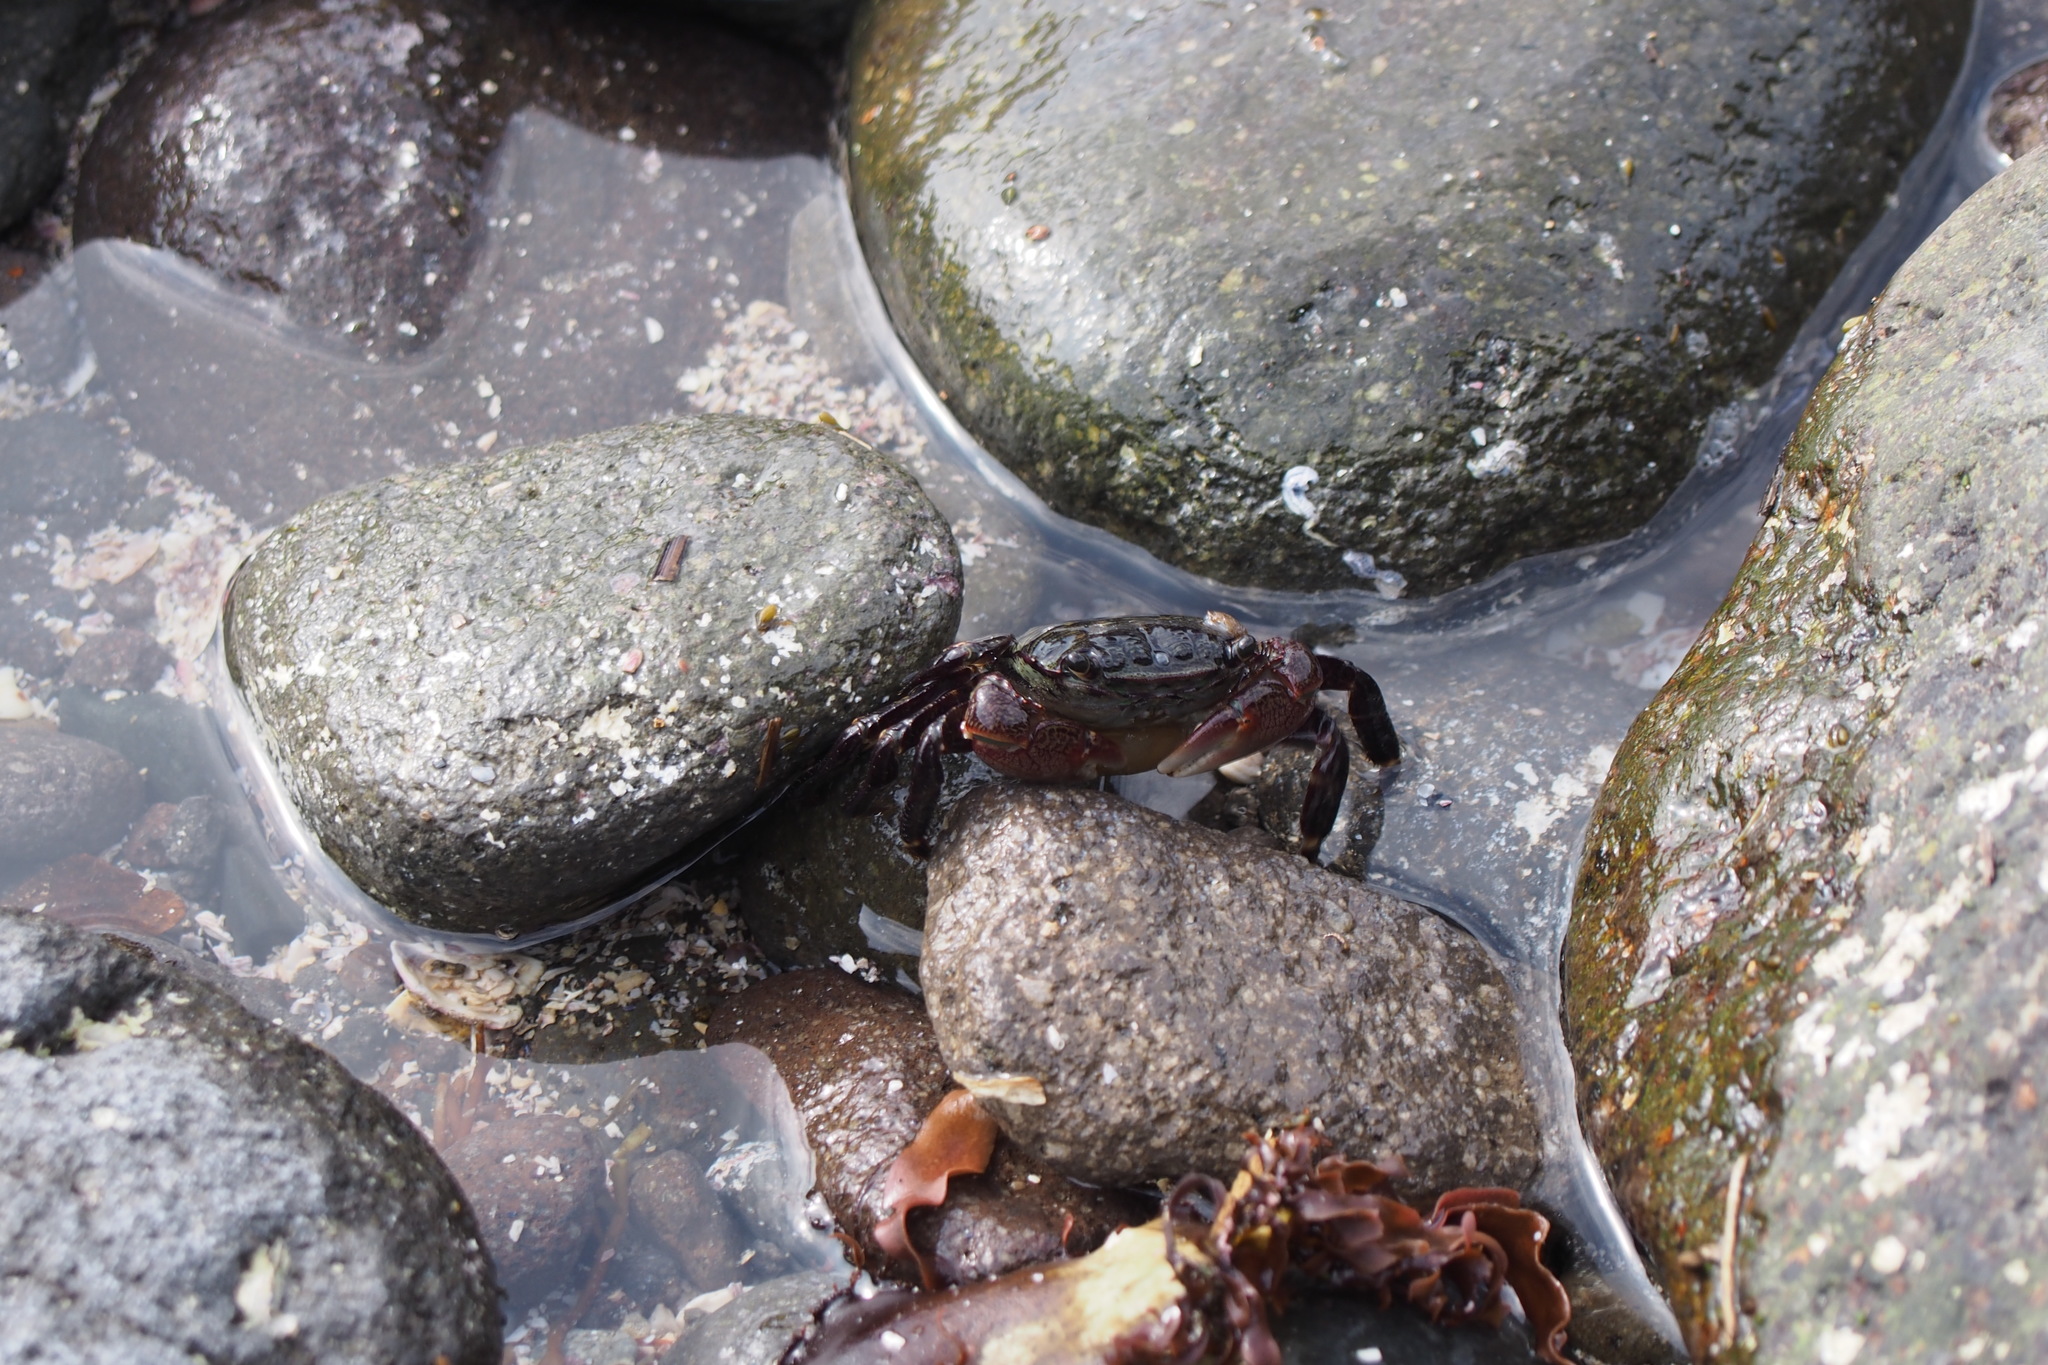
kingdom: Animalia
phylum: Arthropoda
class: Malacostraca
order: Decapoda
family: Grapsidae
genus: Pachygrapsus
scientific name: Pachygrapsus crassipes
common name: Striped shore crab
